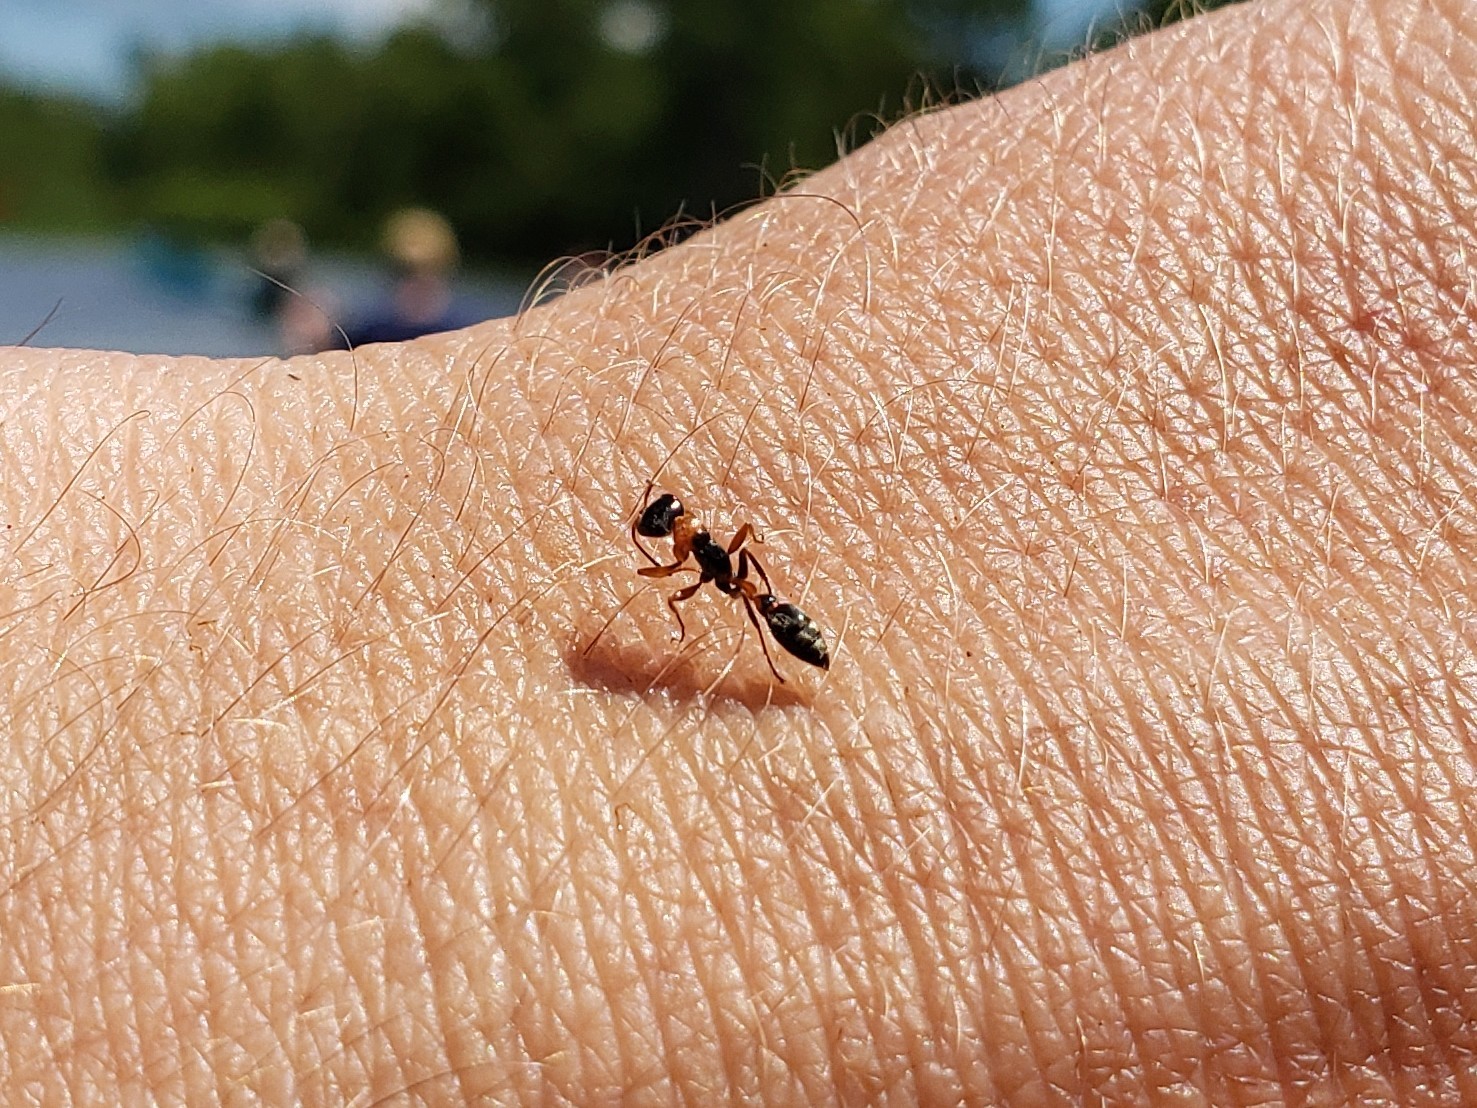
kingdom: Animalia
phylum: Arthropoda
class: Insecta
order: Hymenoptera
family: Formicidae
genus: Pseudomyrmex
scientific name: Pseudomyrmex gracilis
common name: Graceful twig ant
